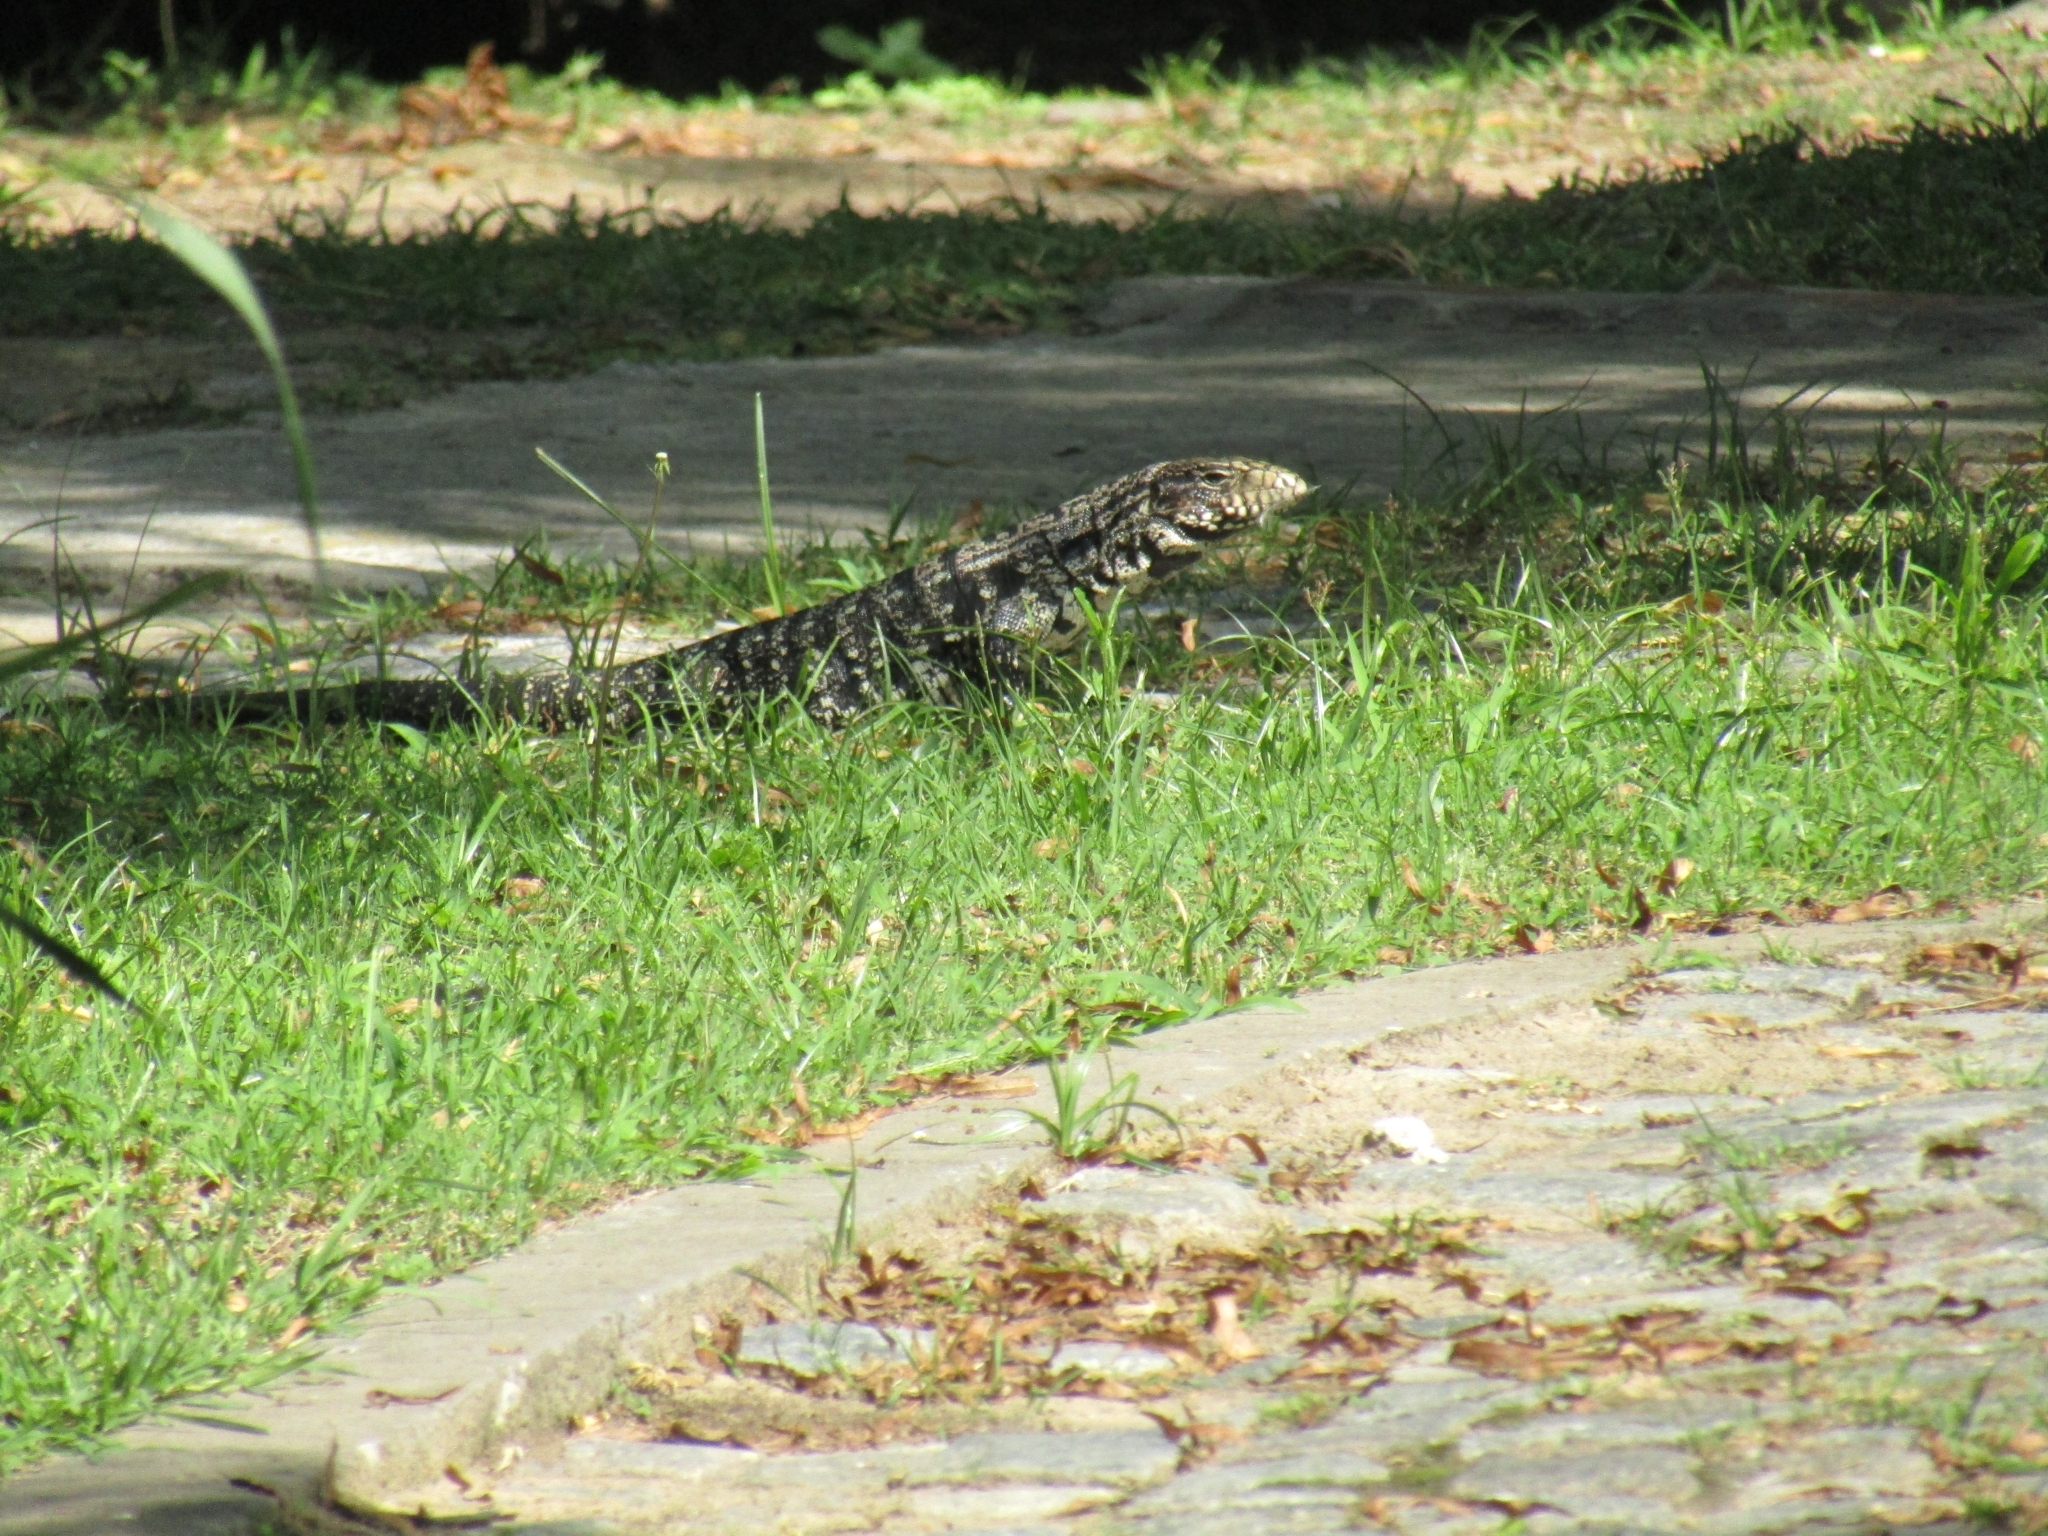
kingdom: Animalia
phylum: Chordata
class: Squamata
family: Teiidae
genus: Salvator
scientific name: Salvator merianae
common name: Argentine black and white tegu
